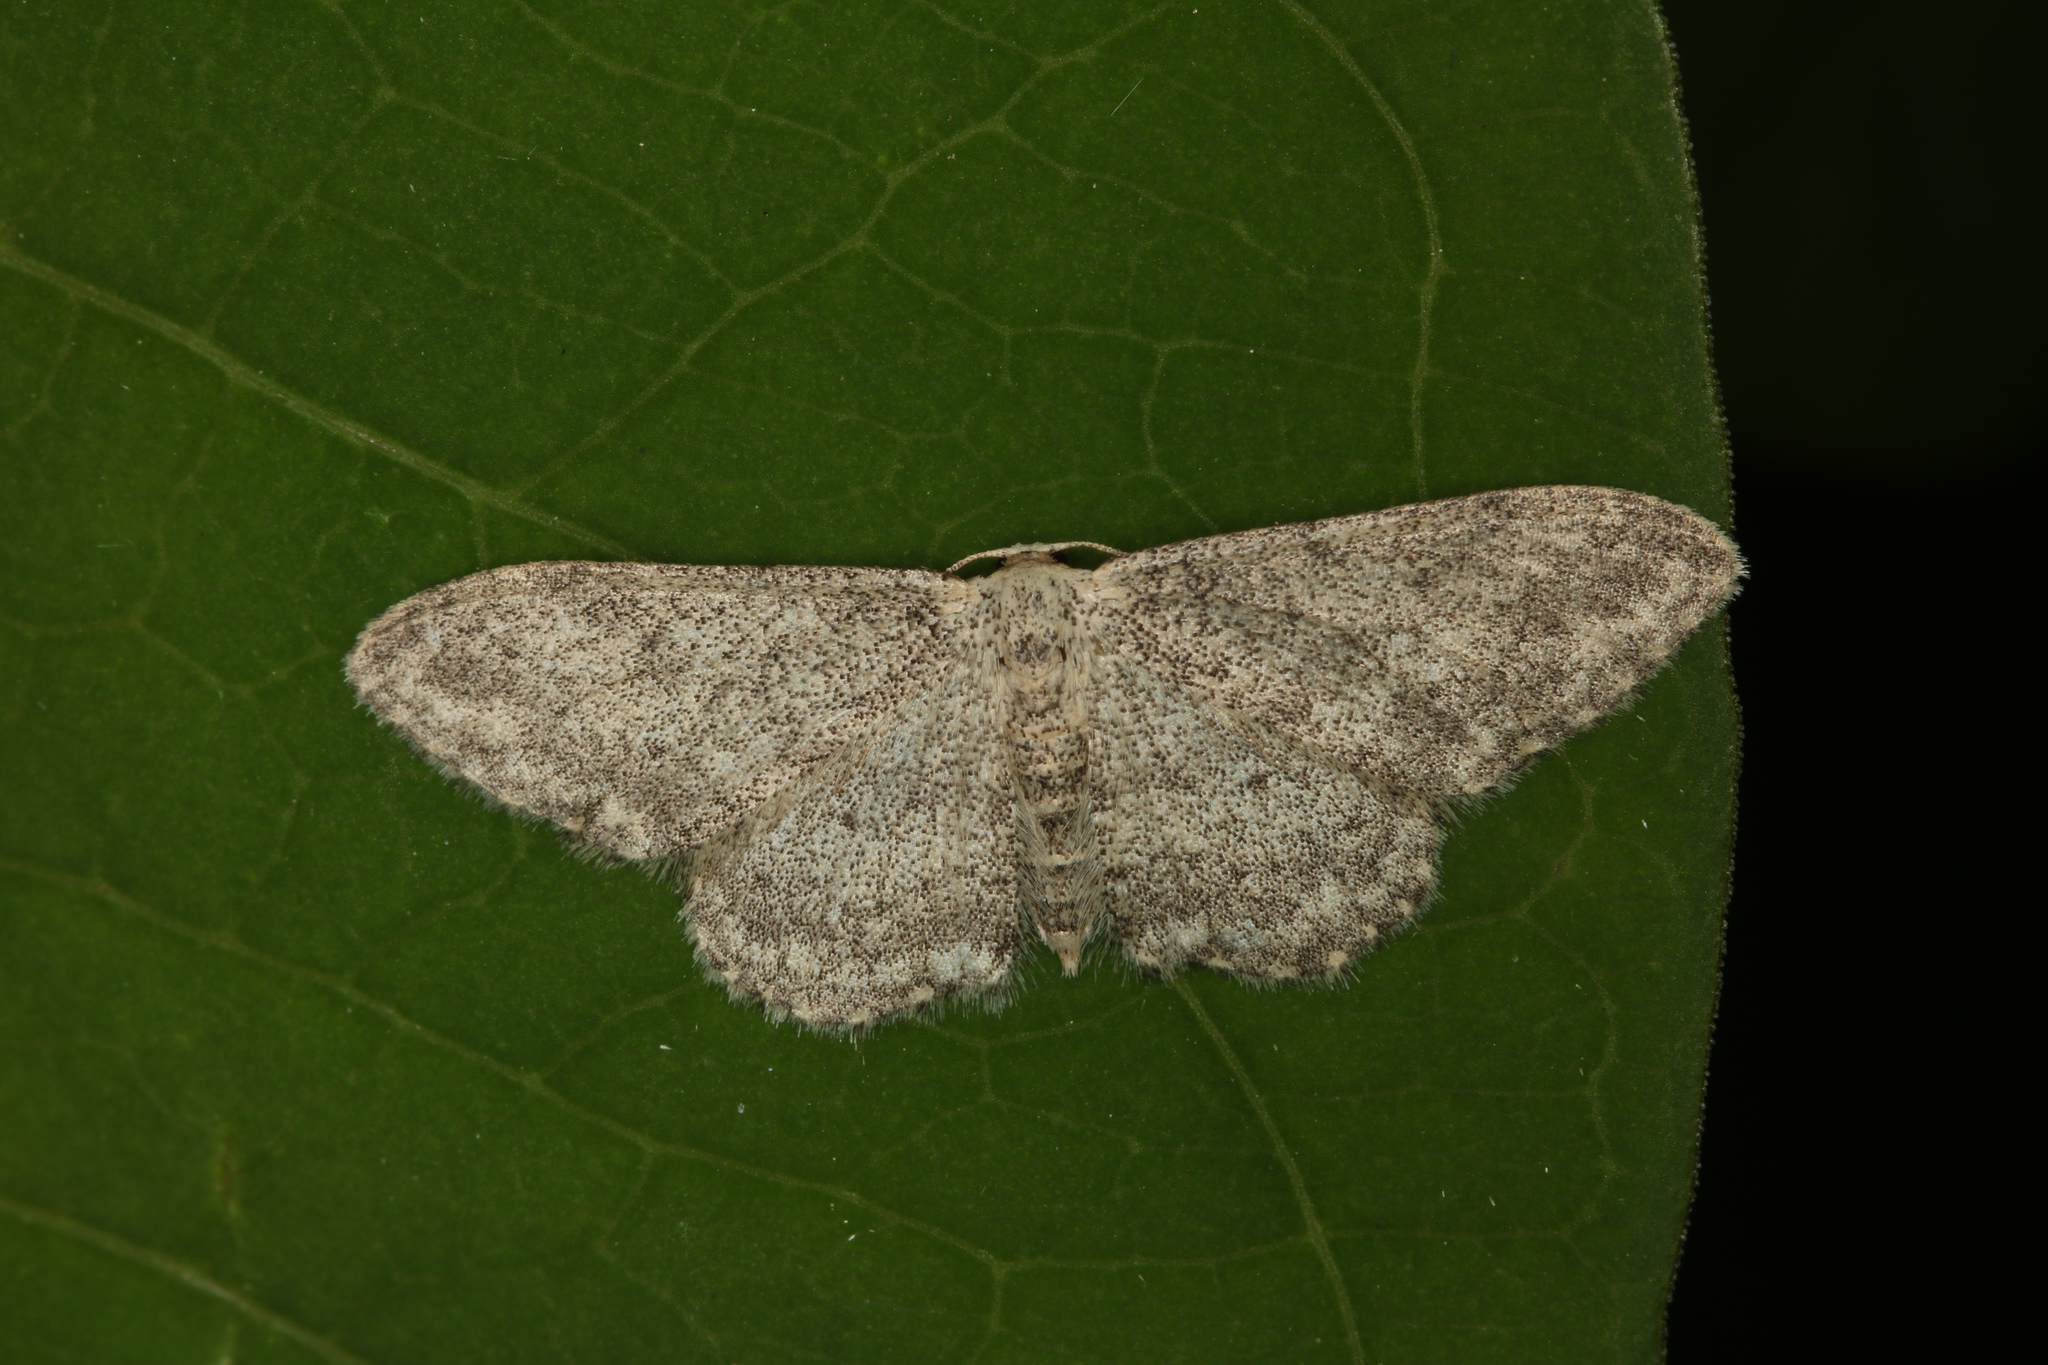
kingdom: Animalia
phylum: Arthropoda
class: Insecta
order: Lepidoptera
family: Geometridae
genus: Idaea
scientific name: Idaea seriata
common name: Small dusty wave
